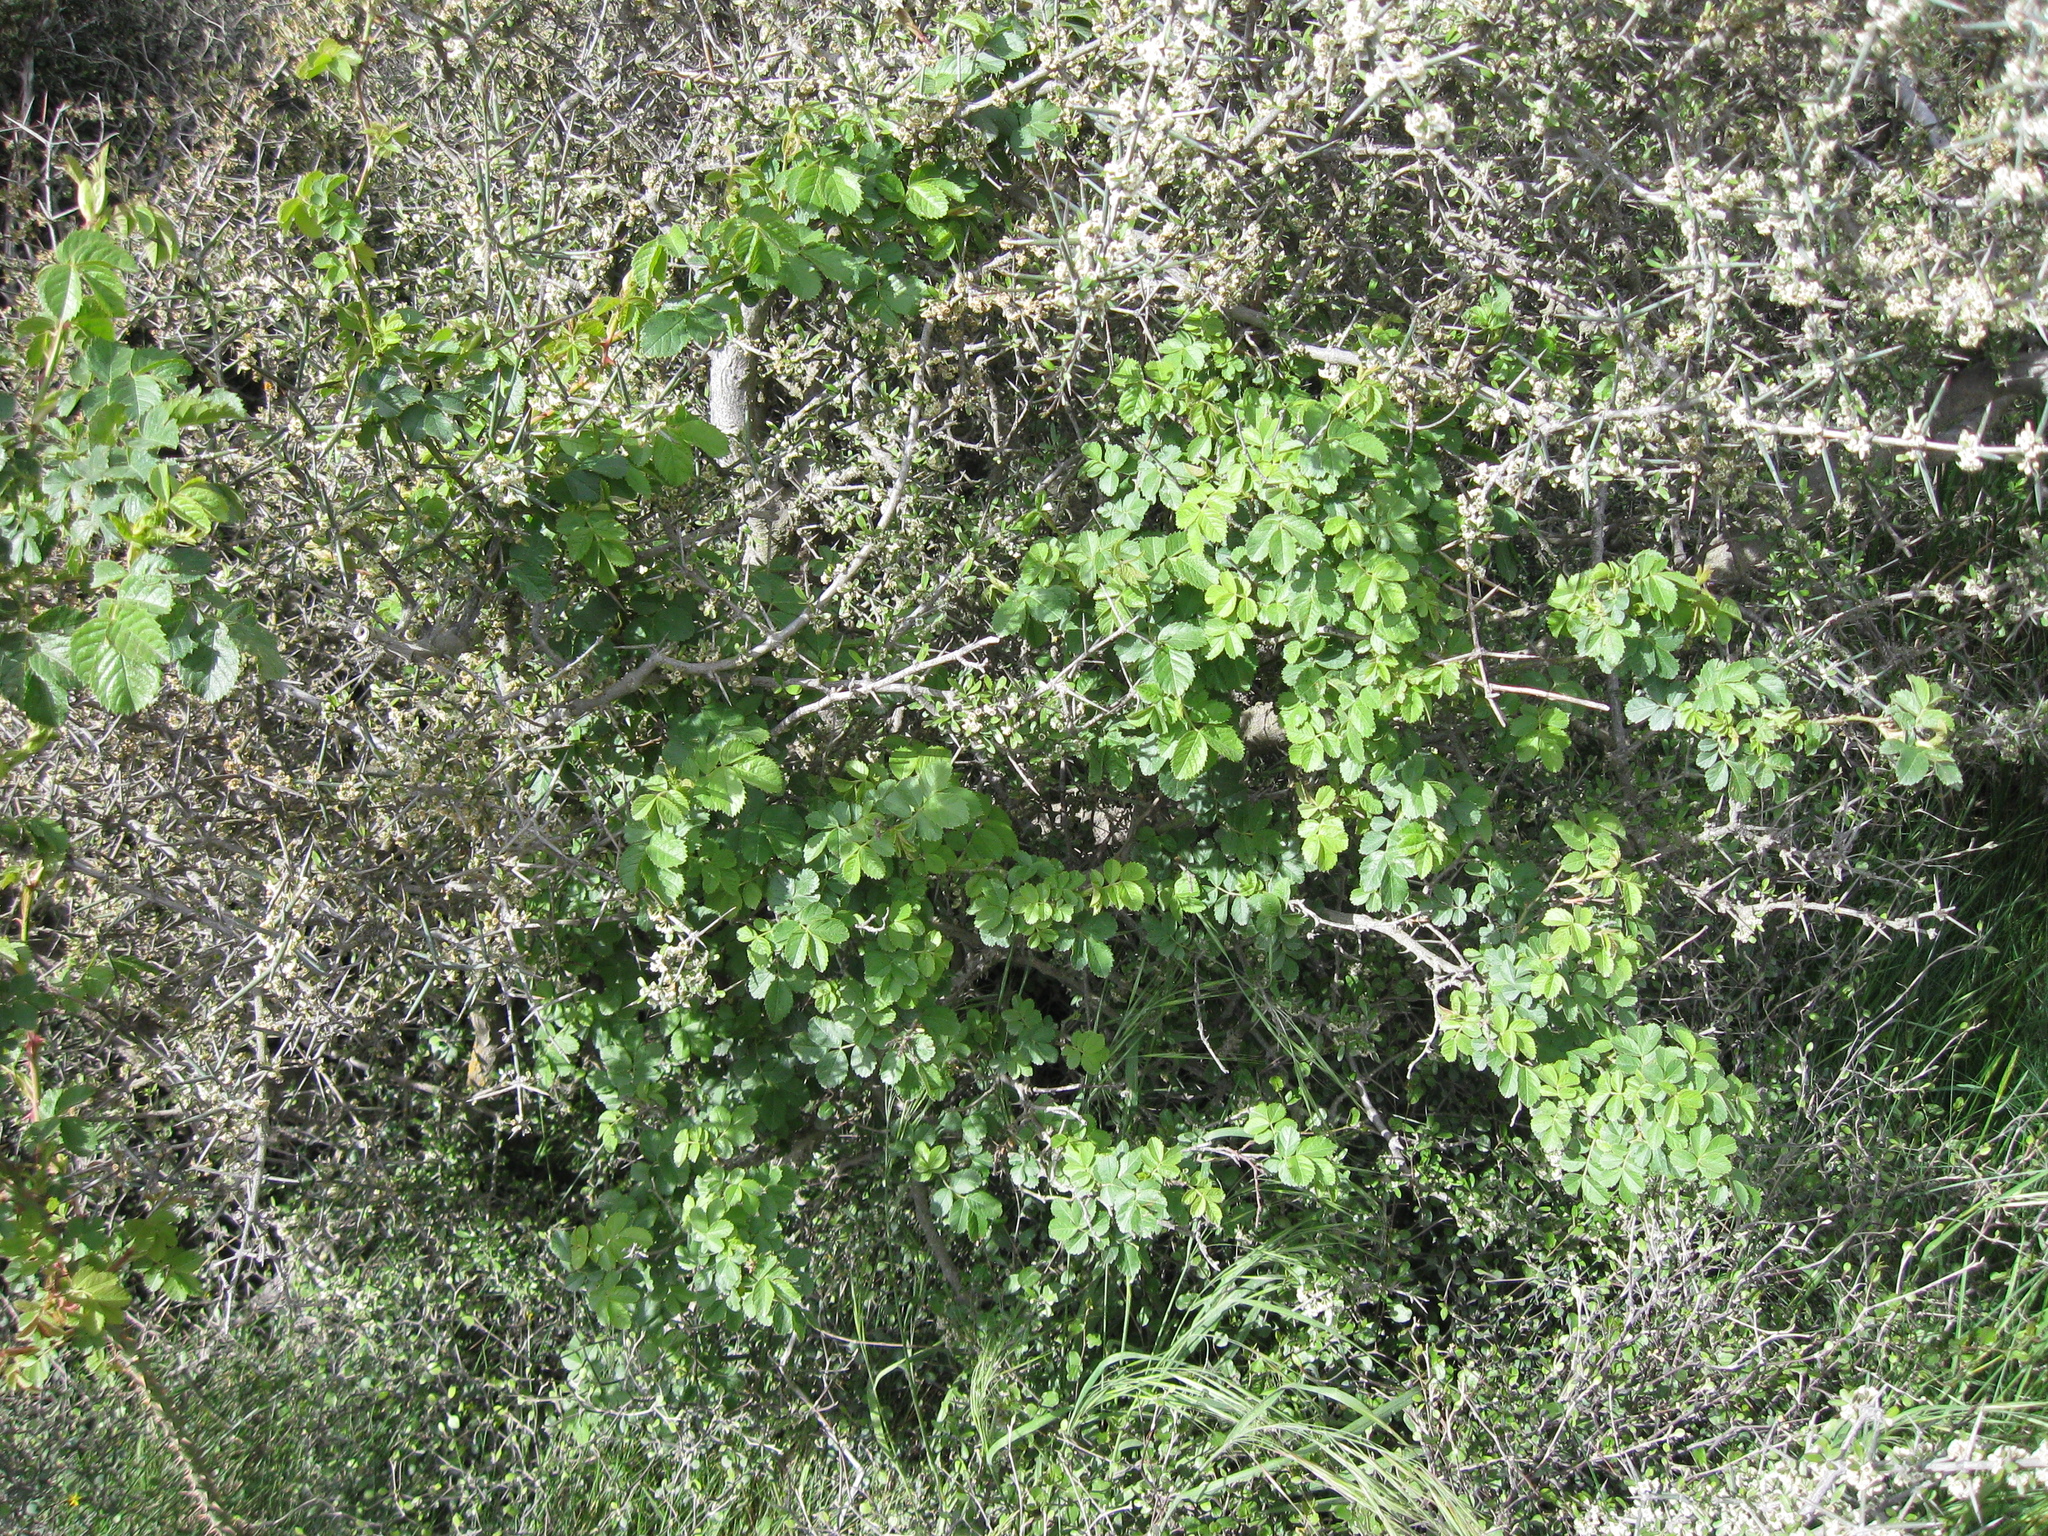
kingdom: Plantae
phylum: Tracheophyta
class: Magnoliopsida
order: Rosales
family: Rosaceae
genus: Rosa
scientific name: Rosa rubiginosa
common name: Sweet-briar
